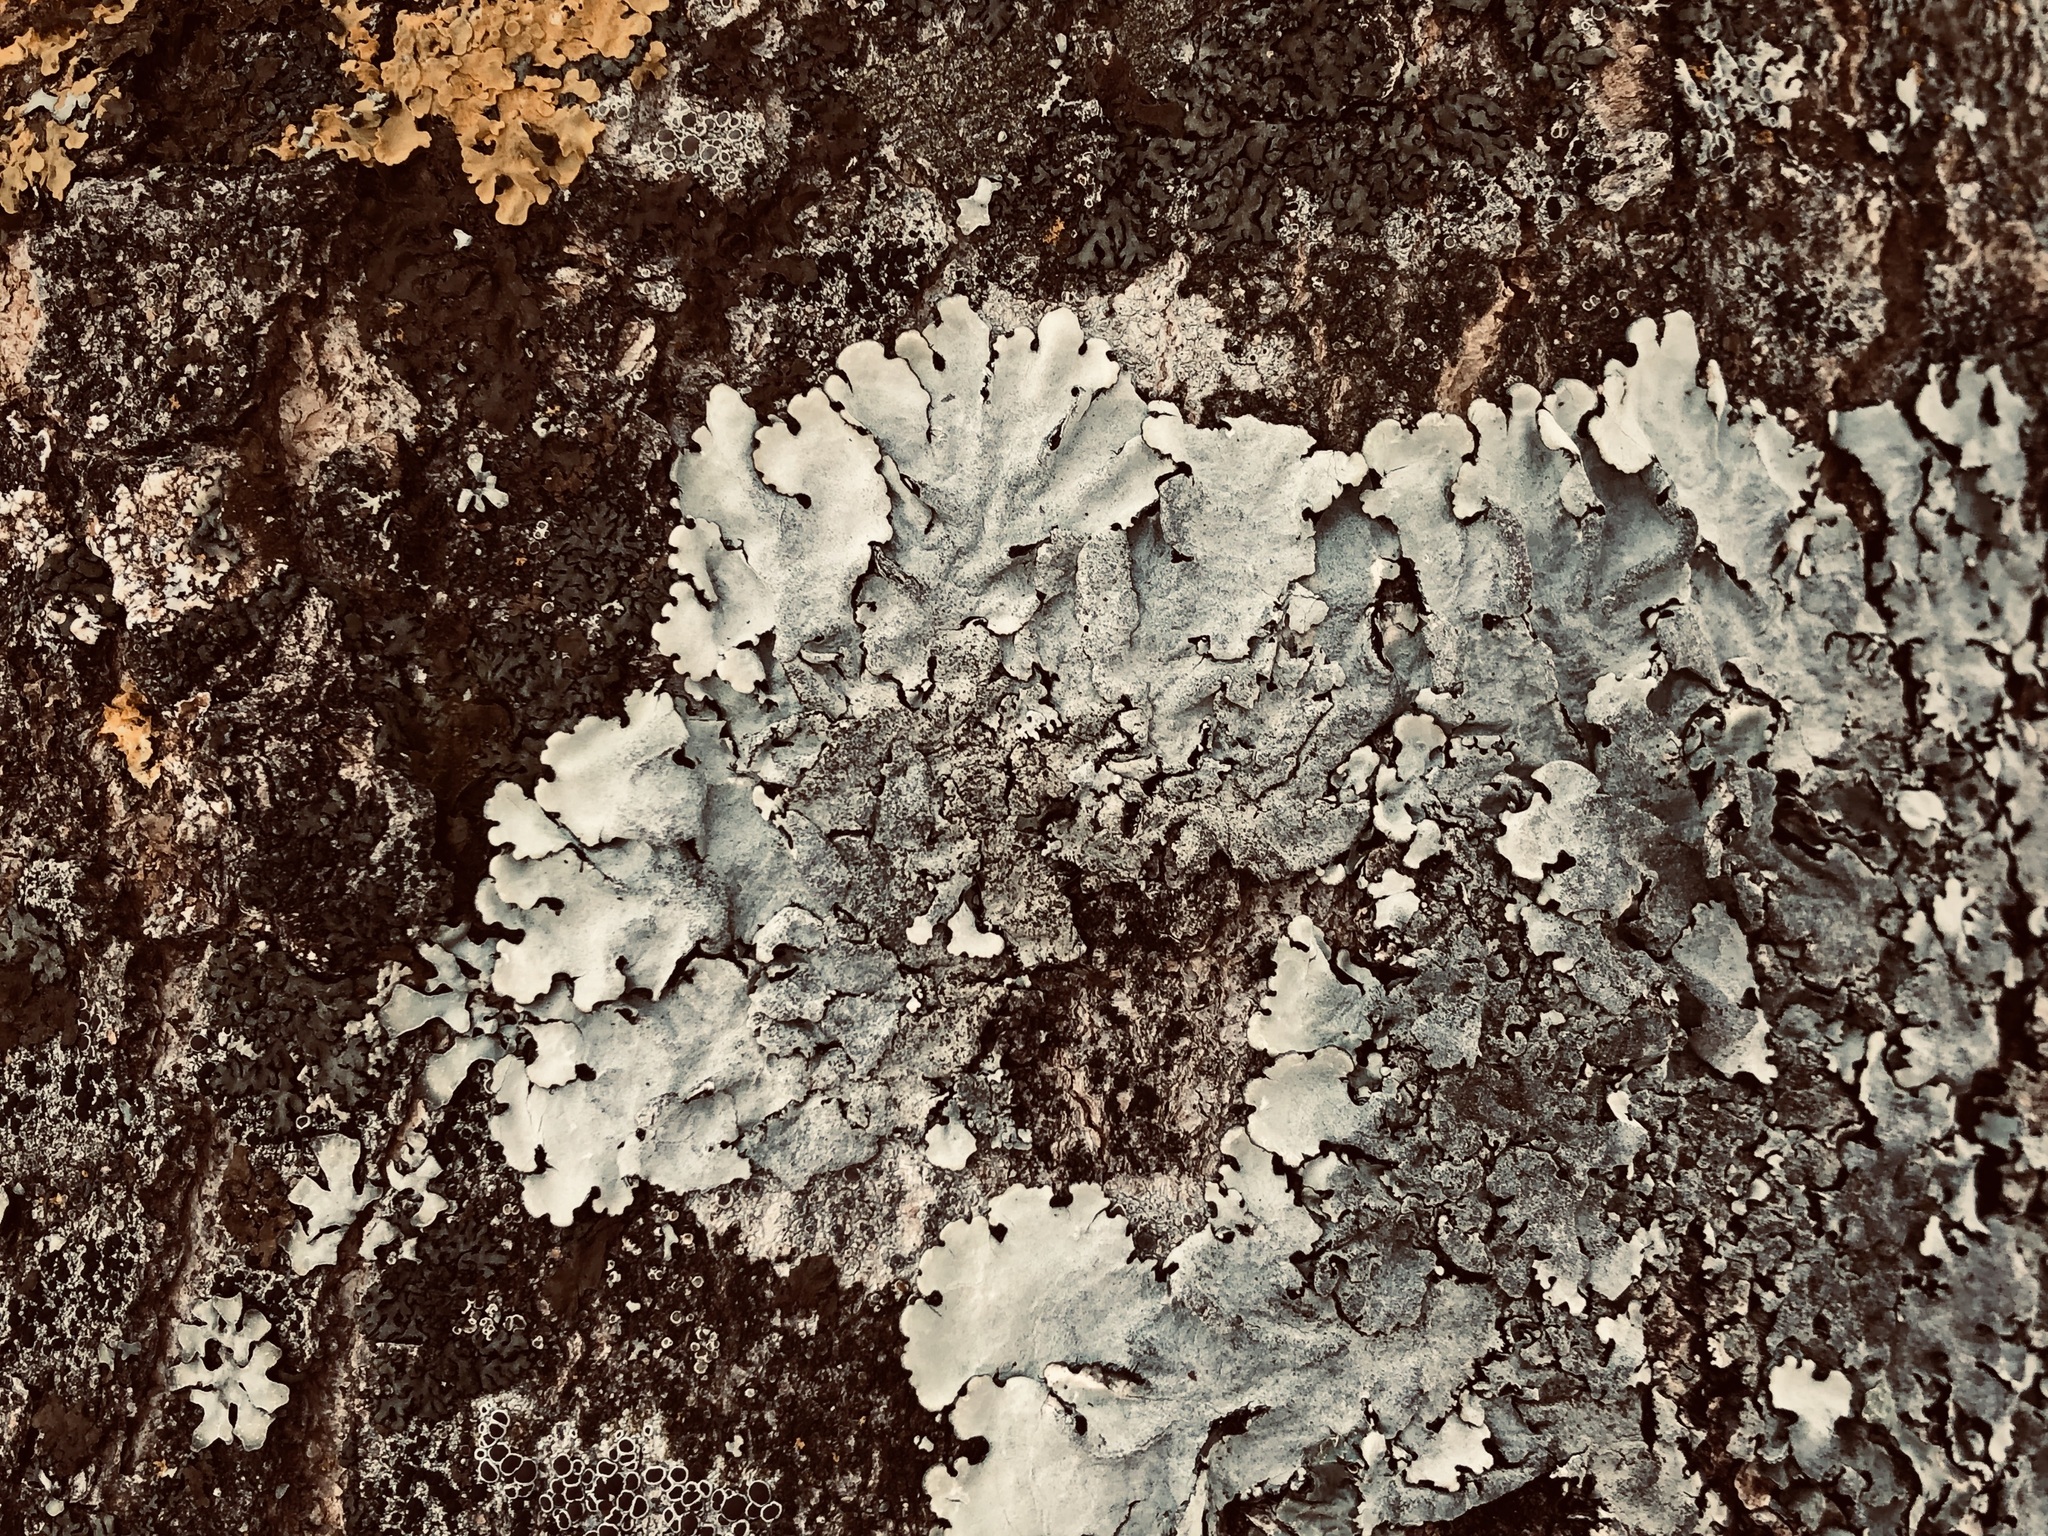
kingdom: Fungi
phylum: Ascomycota
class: Lecanoromycetes
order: Lecanorales
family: Parmeliaceae
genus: Parmelina
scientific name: Parmelina tiliacea
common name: Linden shield lichen
